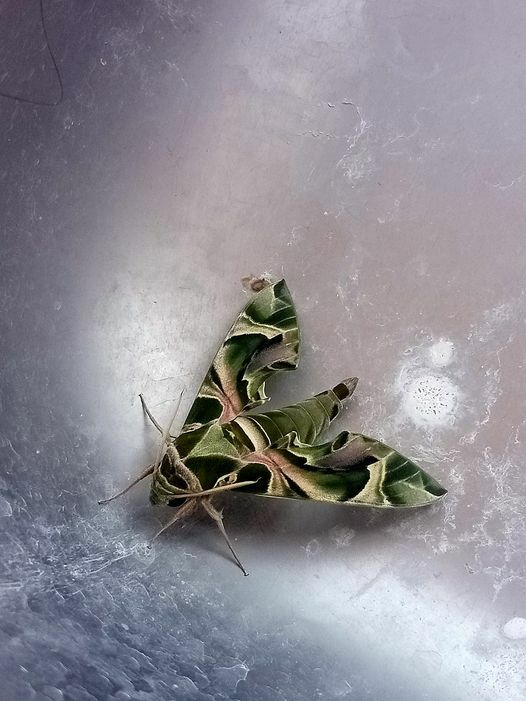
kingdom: Animalia
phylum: Arthropoda
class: Insecta
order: Lepidoptera
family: Sphingidae
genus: Daphnis
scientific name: Daphnis nerii
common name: Oleander hawk-moth
